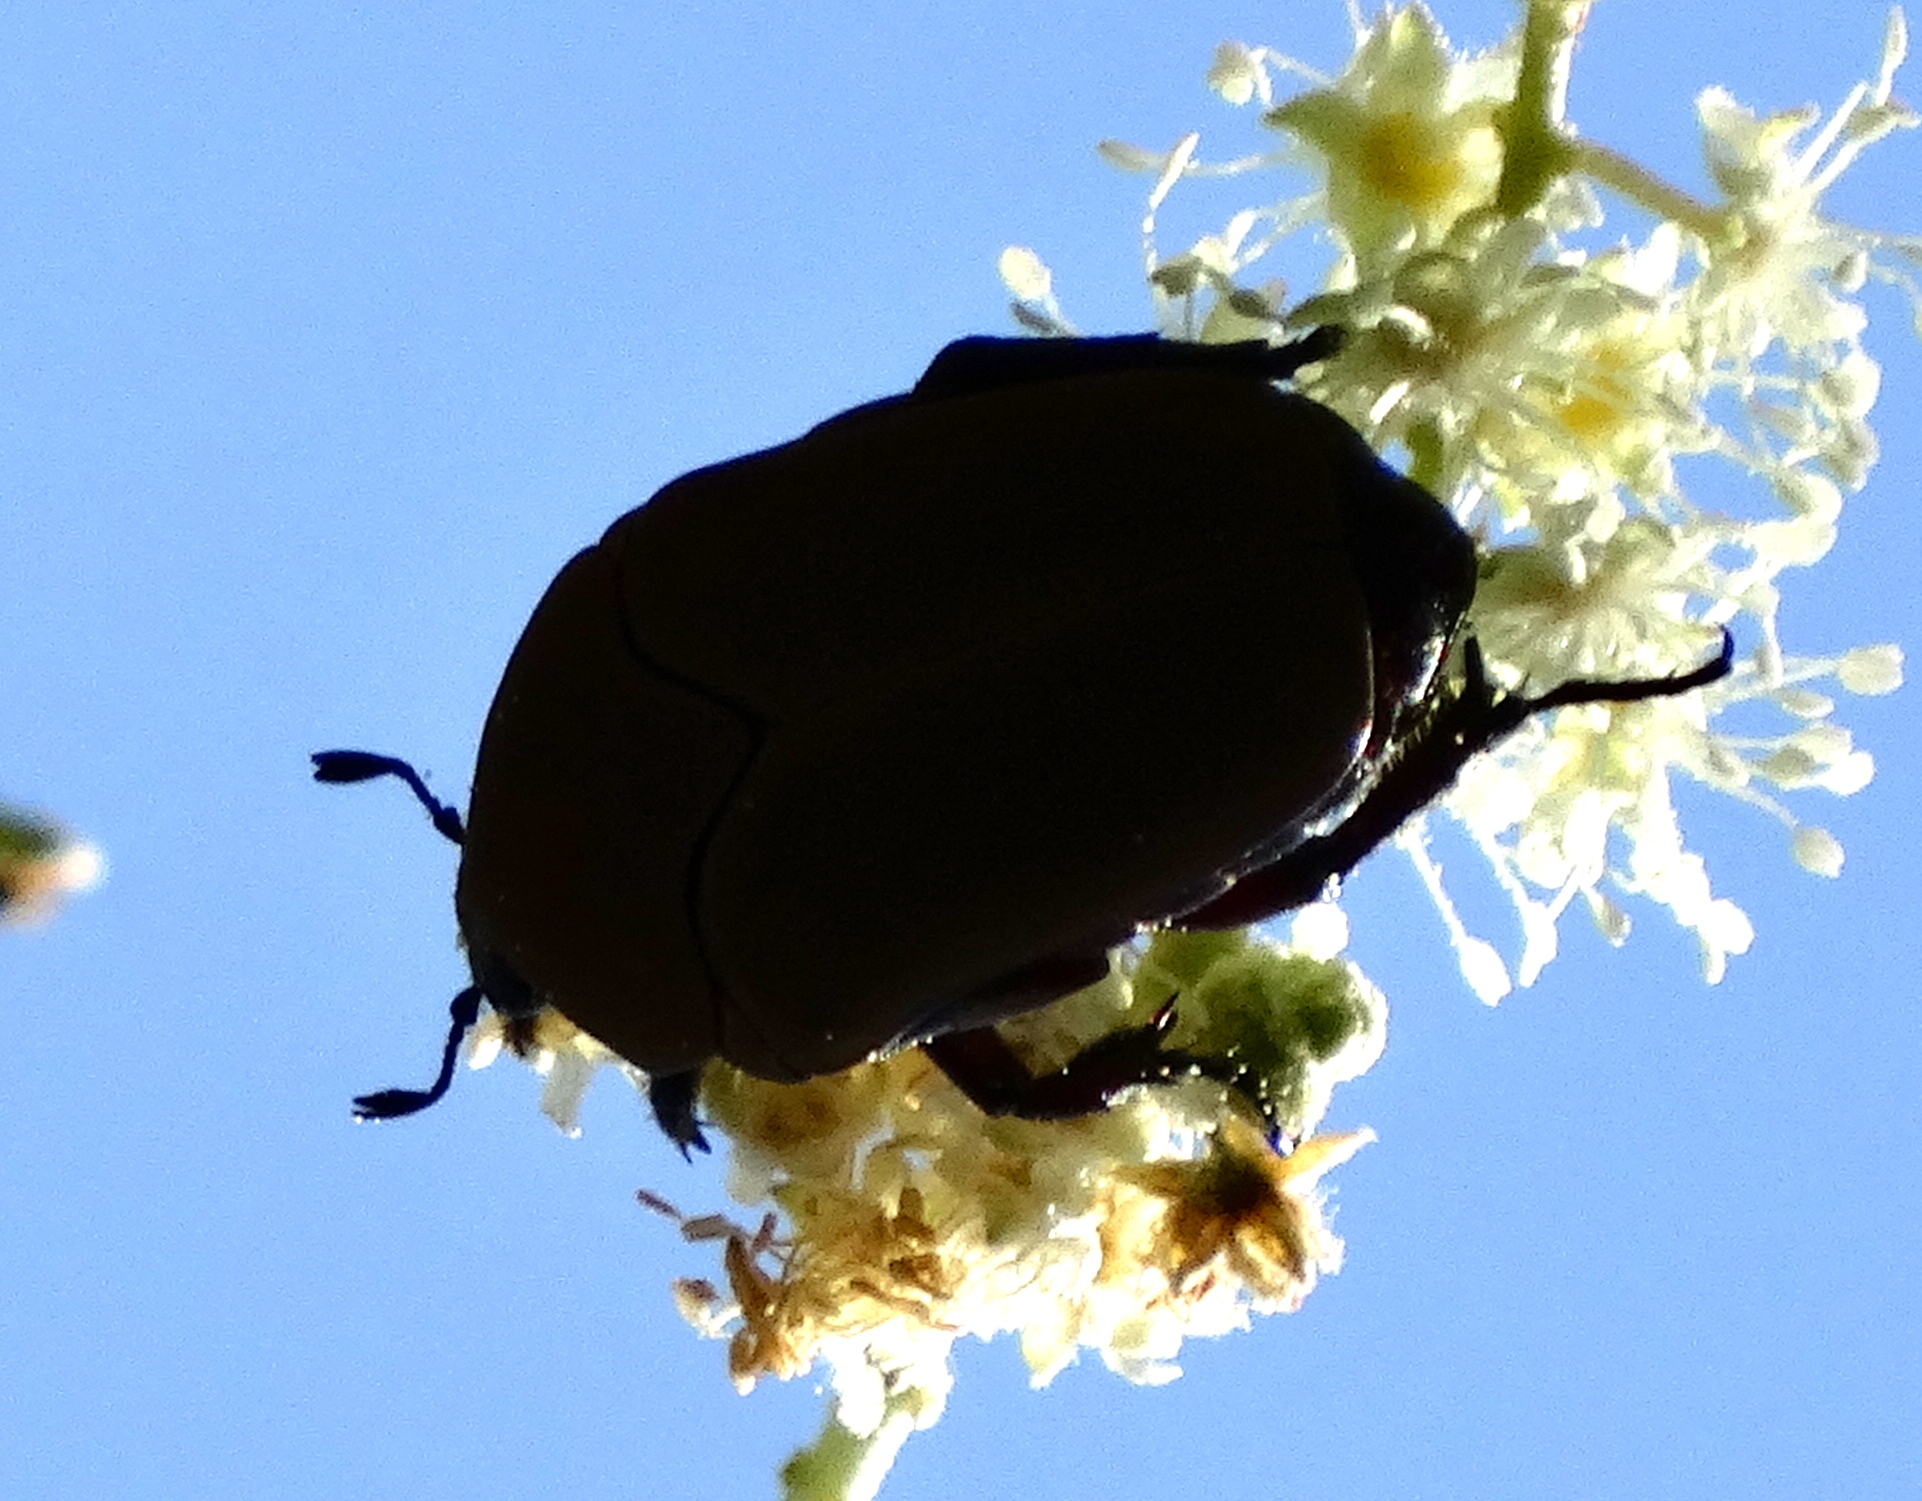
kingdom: Animalia
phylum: Arthropoda
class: Insecta
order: Coleoptera
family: Scarabaeidae
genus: Hologymnetis
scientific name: Hologymnetis cinerea
